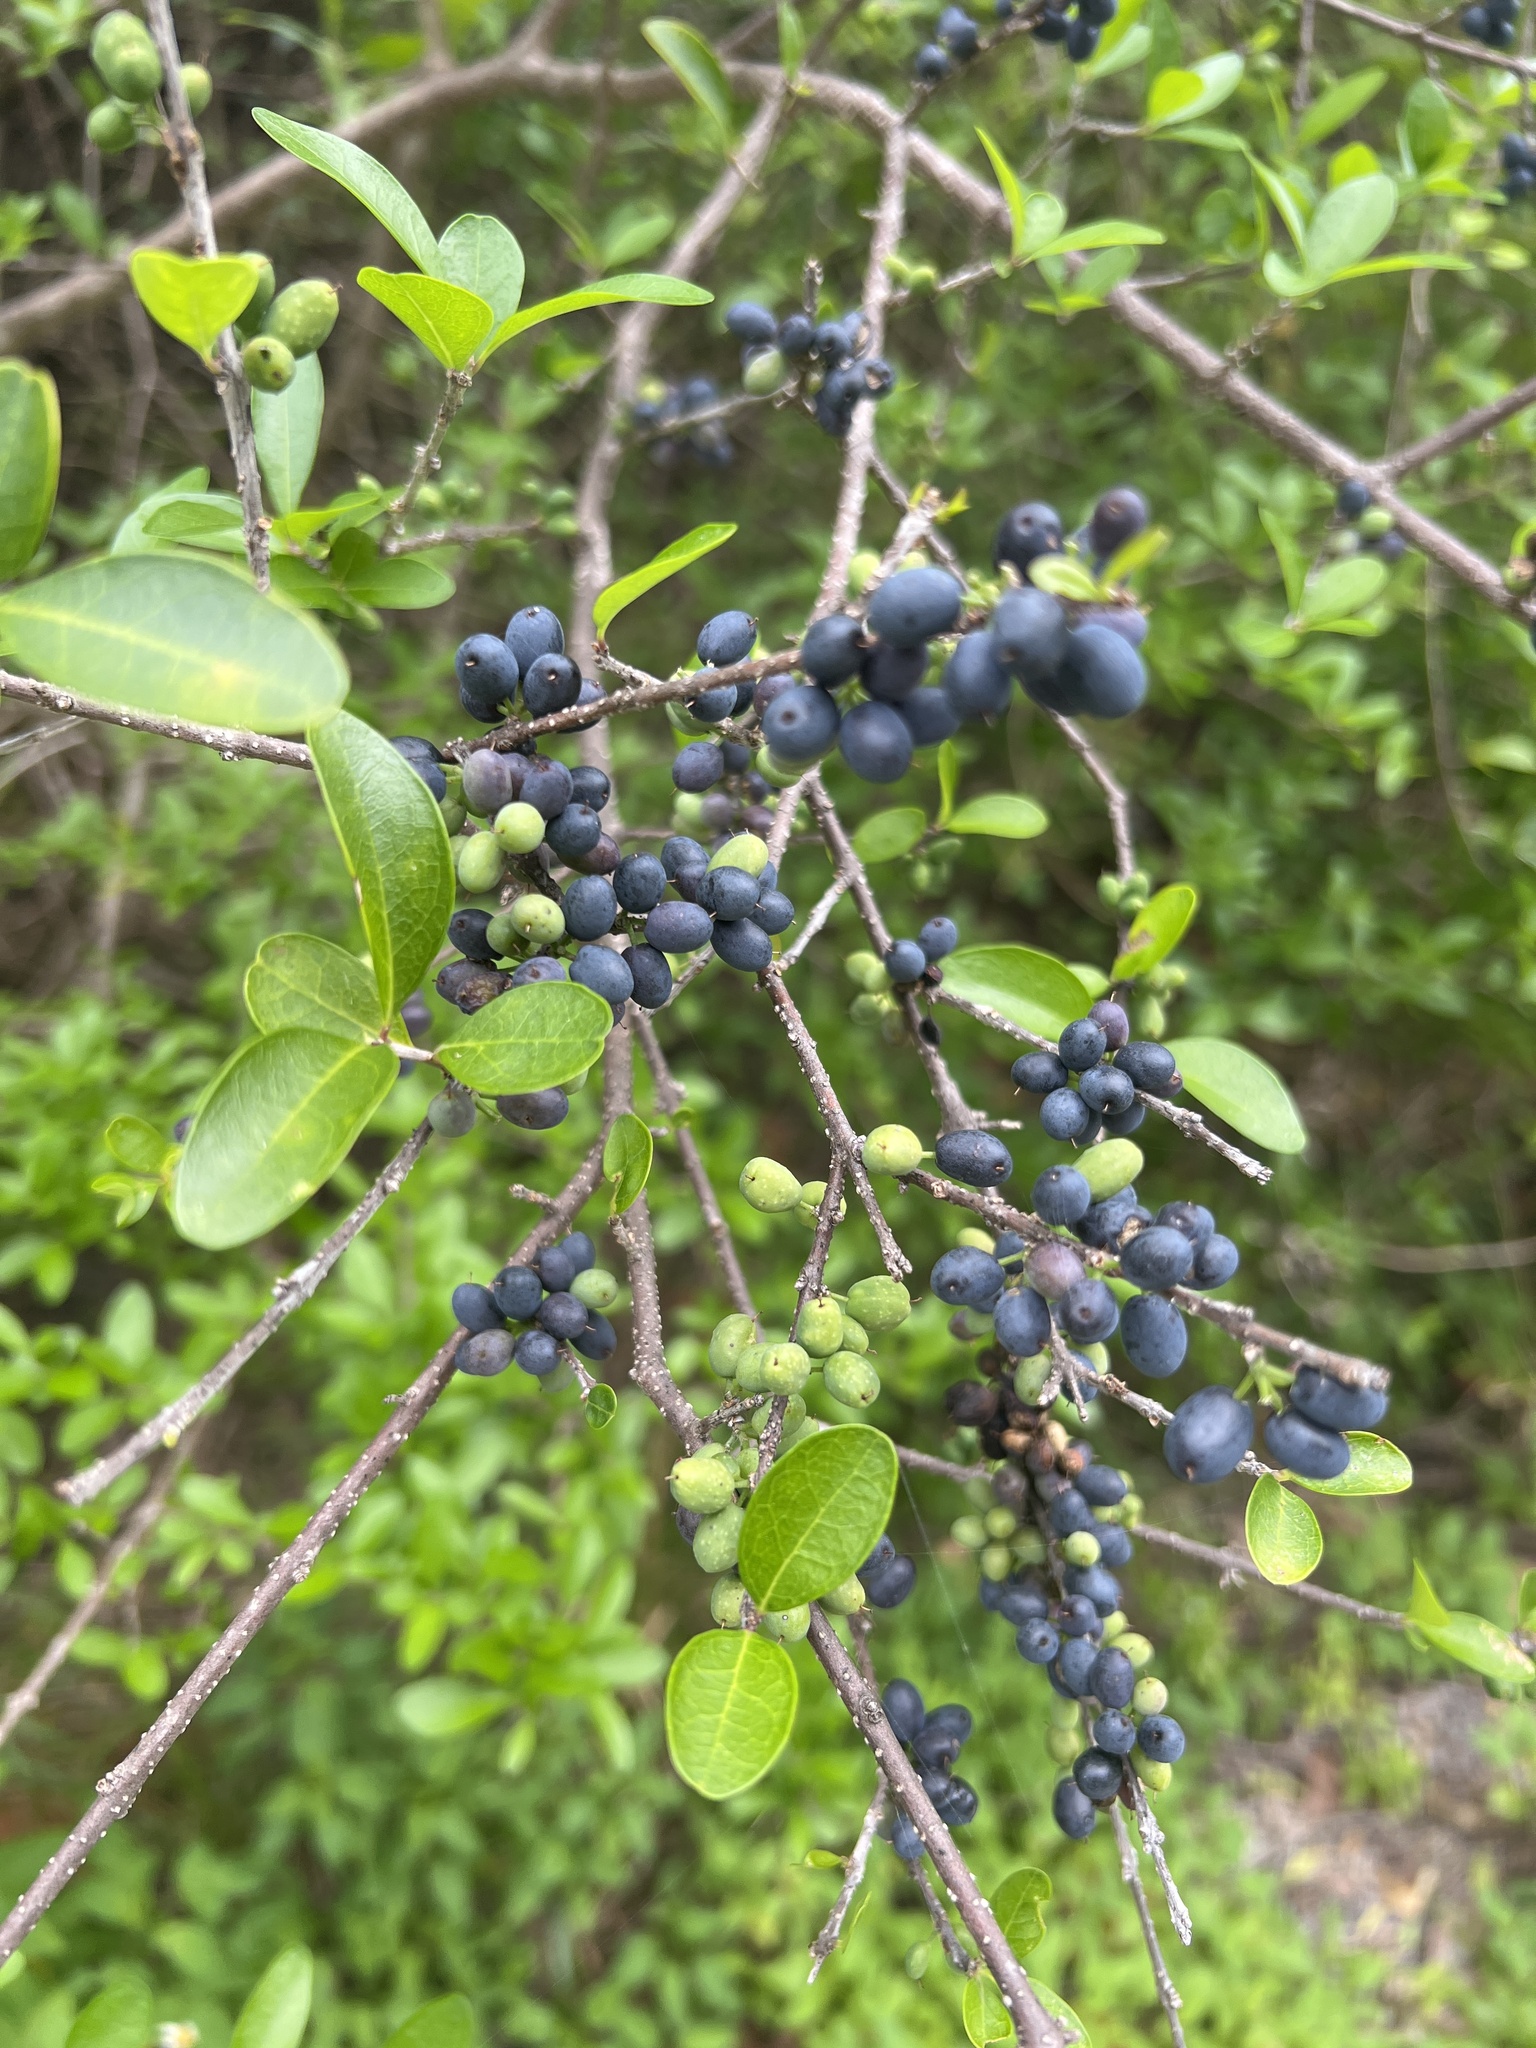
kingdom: Plantae
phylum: Tracheophyta
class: Magnoliopsida
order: Lamiales
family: Oleaceae
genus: Forestiera
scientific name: Forestiera segregata
